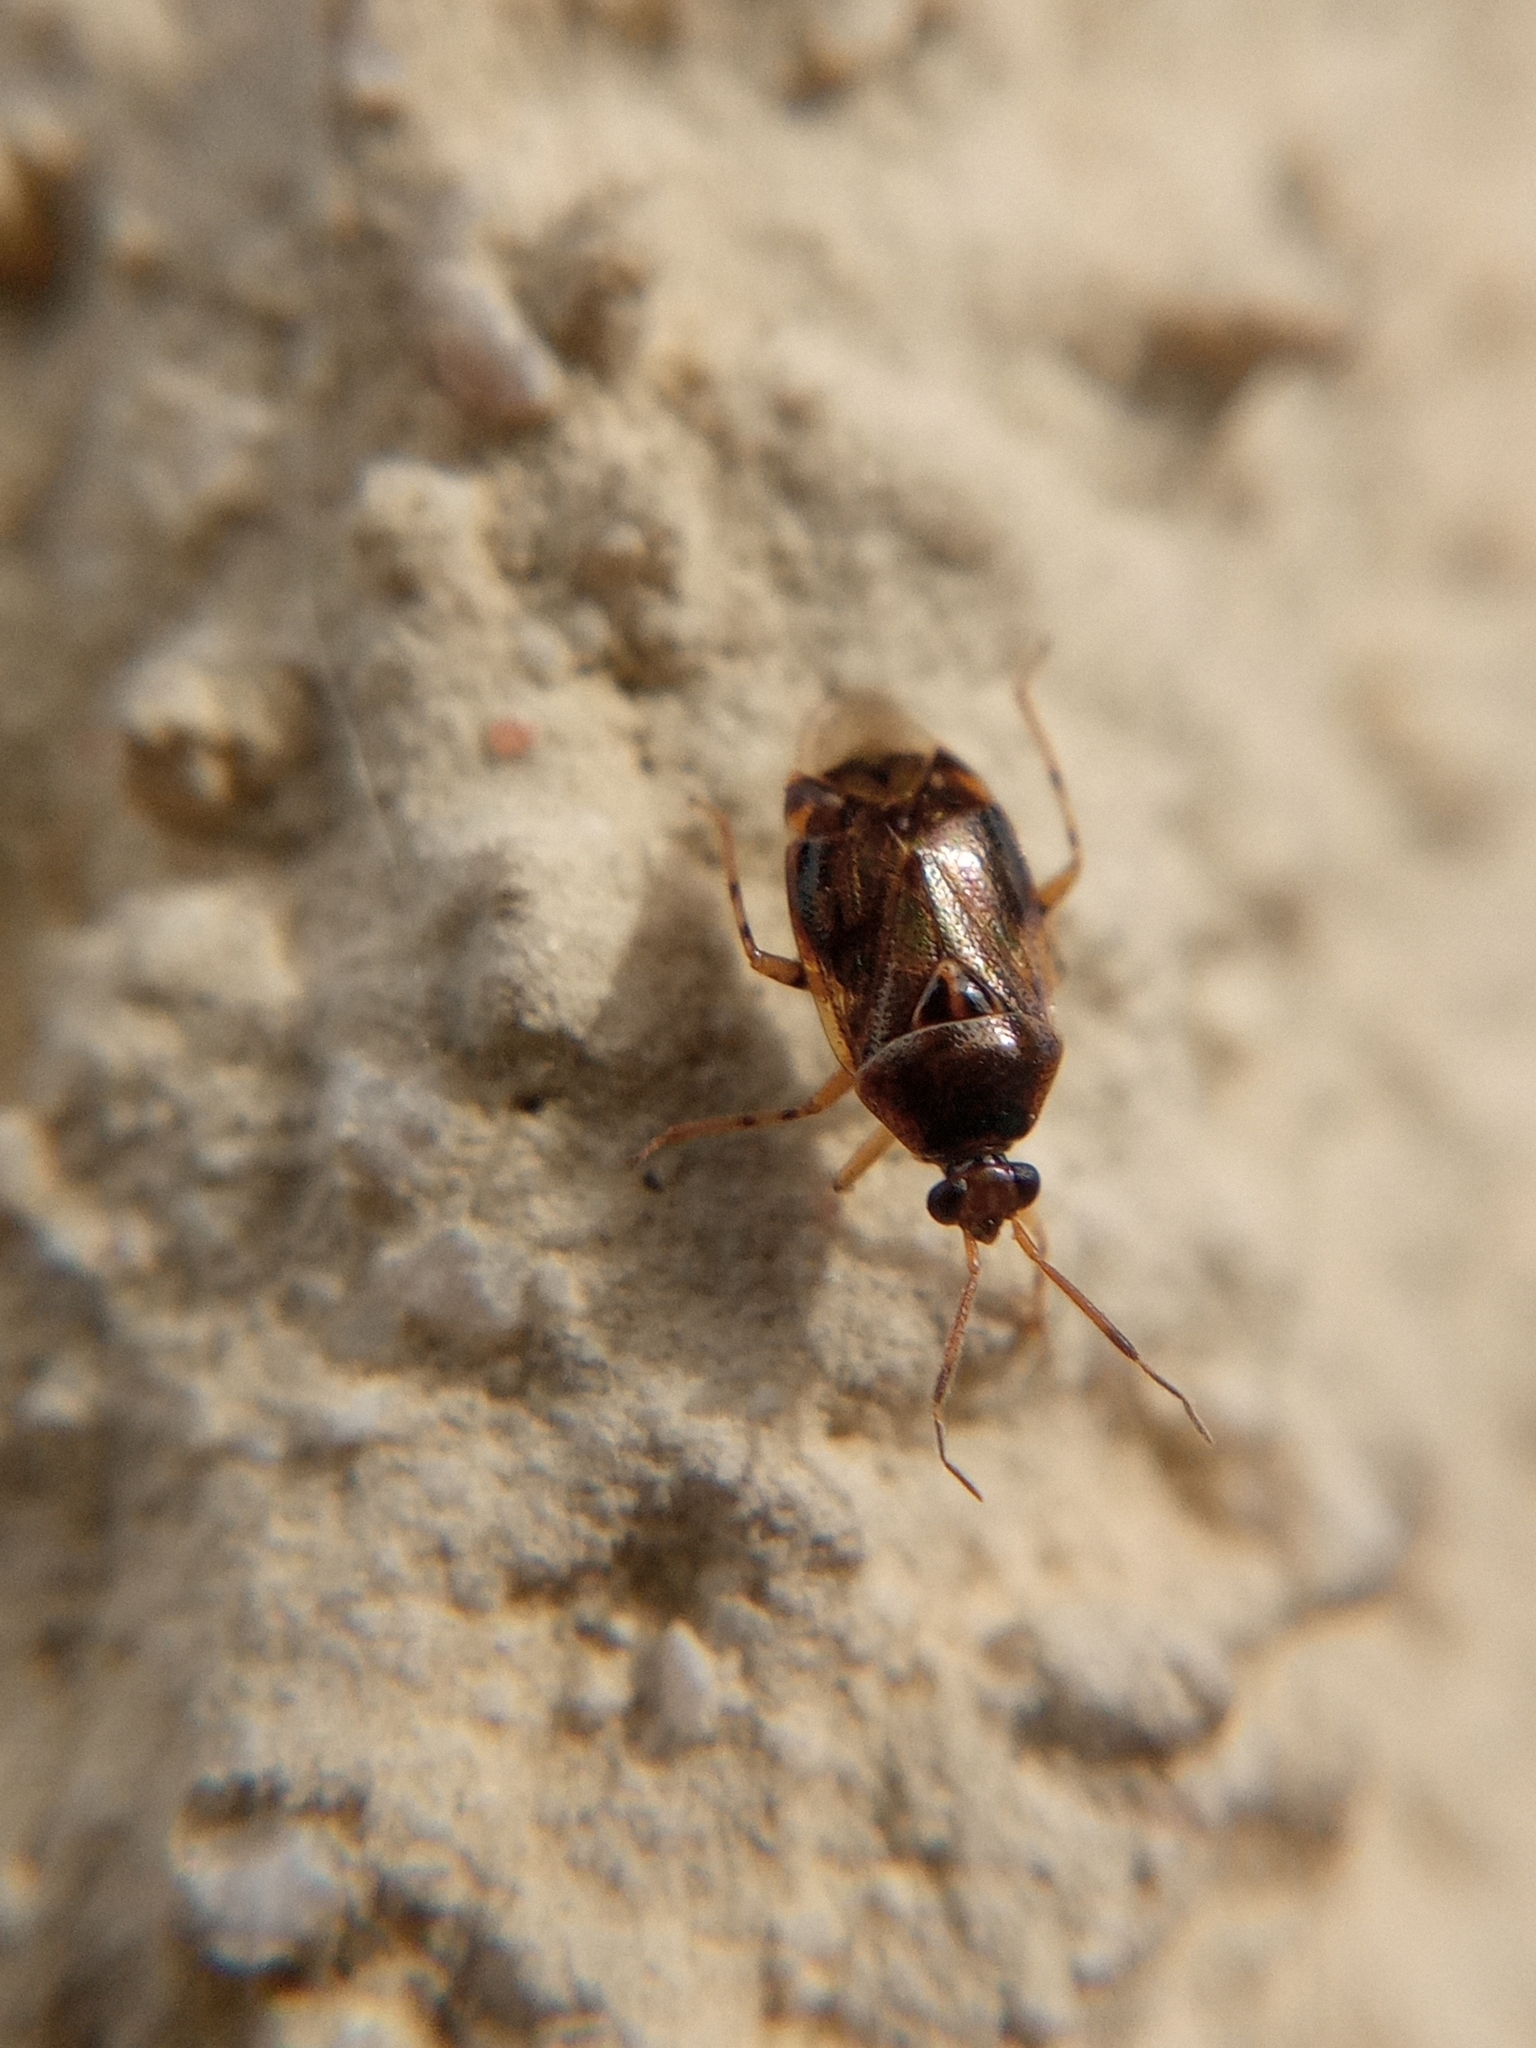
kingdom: Animalia
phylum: Arthropoda
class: Insecta
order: Hemiptera
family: Miridae
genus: Deraeocoris
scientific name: Deraeocoris lutescens
